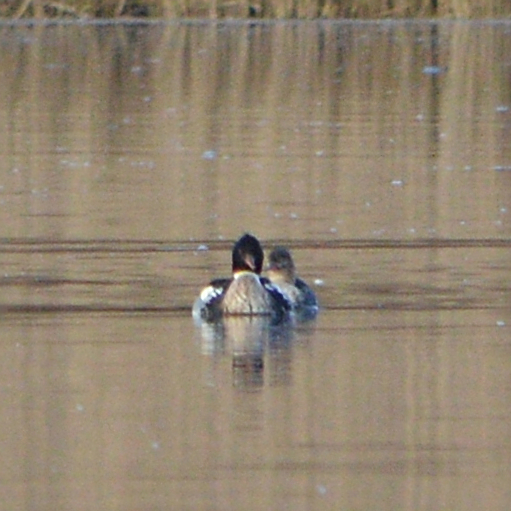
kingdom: Animalia
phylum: Chordata
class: Aves
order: Anseriformes
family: Anatidae
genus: Mergus
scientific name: Mergus serrator
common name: Red-breasted merganser
